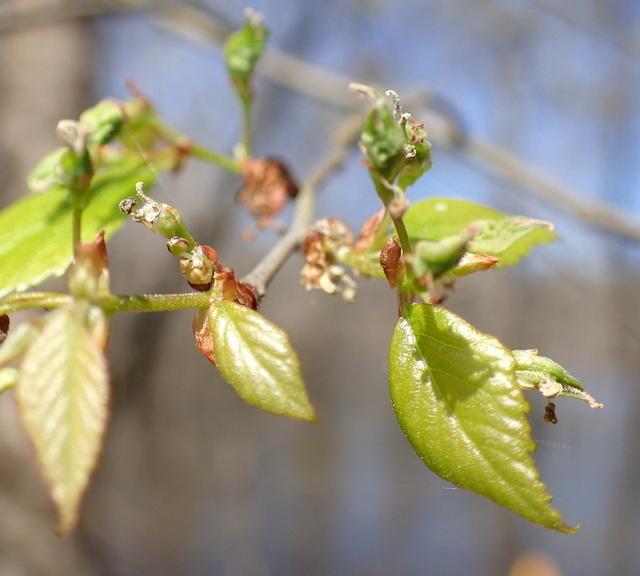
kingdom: Plantae
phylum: Tracheophyta
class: Magnoliopsida
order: Rosales
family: Ulmaceae
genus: Planera
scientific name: Planera aquatica
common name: Water-elm
